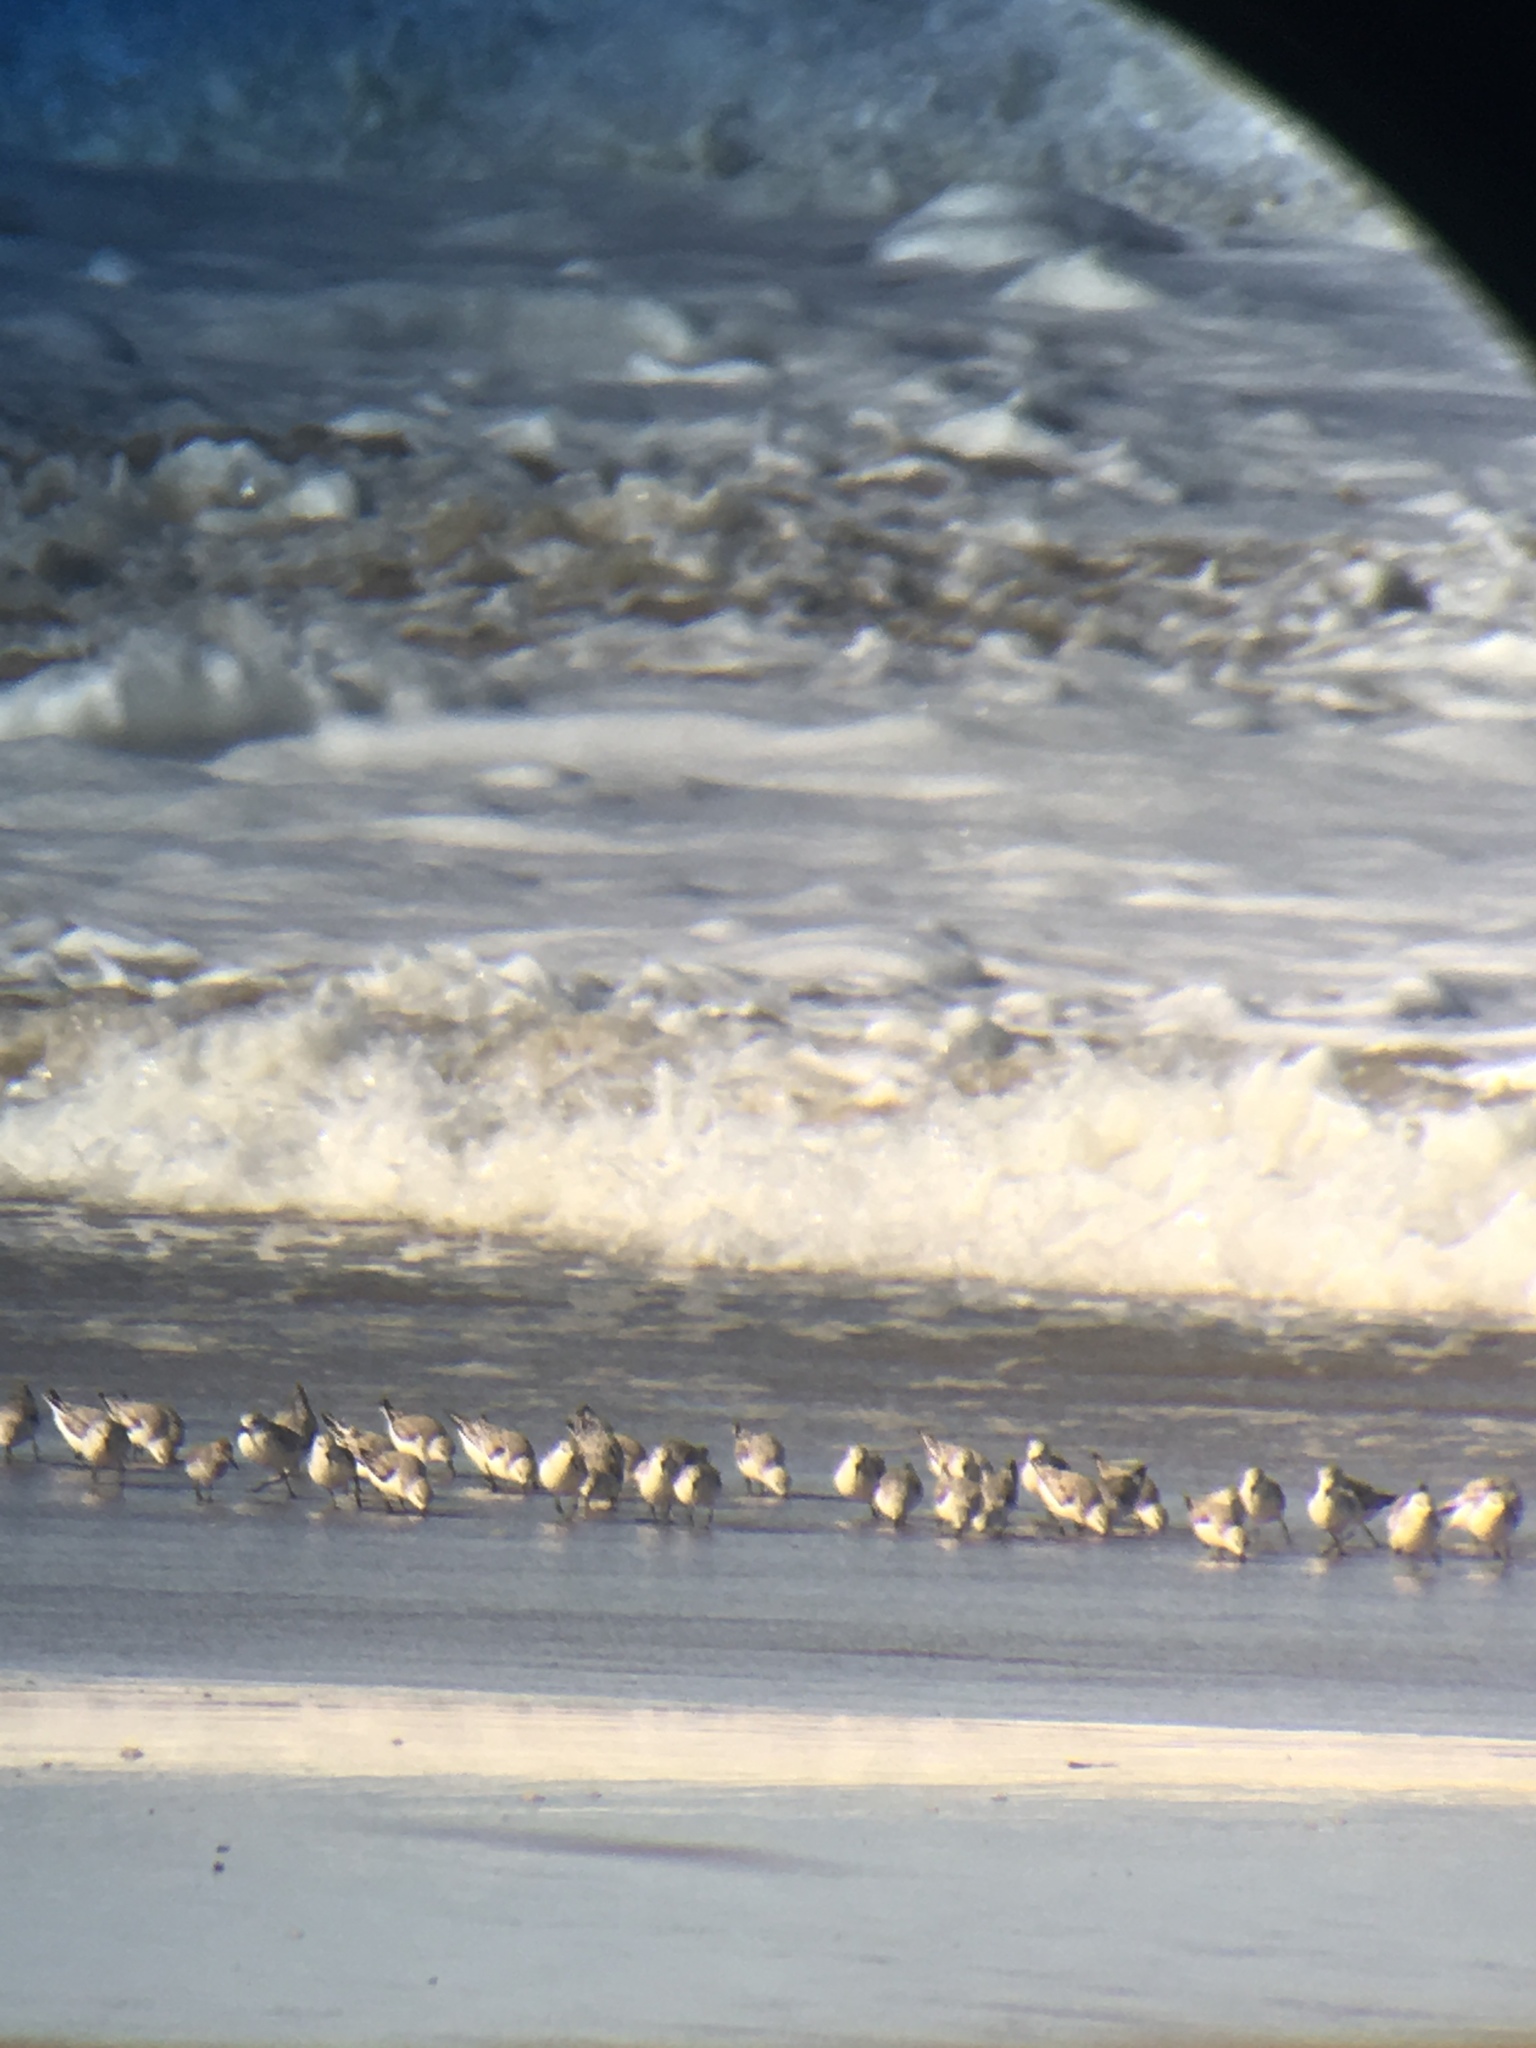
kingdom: Animalia
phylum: Chordata
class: Aves
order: Charadriiformes
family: Scolopacidae
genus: Calidris
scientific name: Calidris alba
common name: Sanderling
